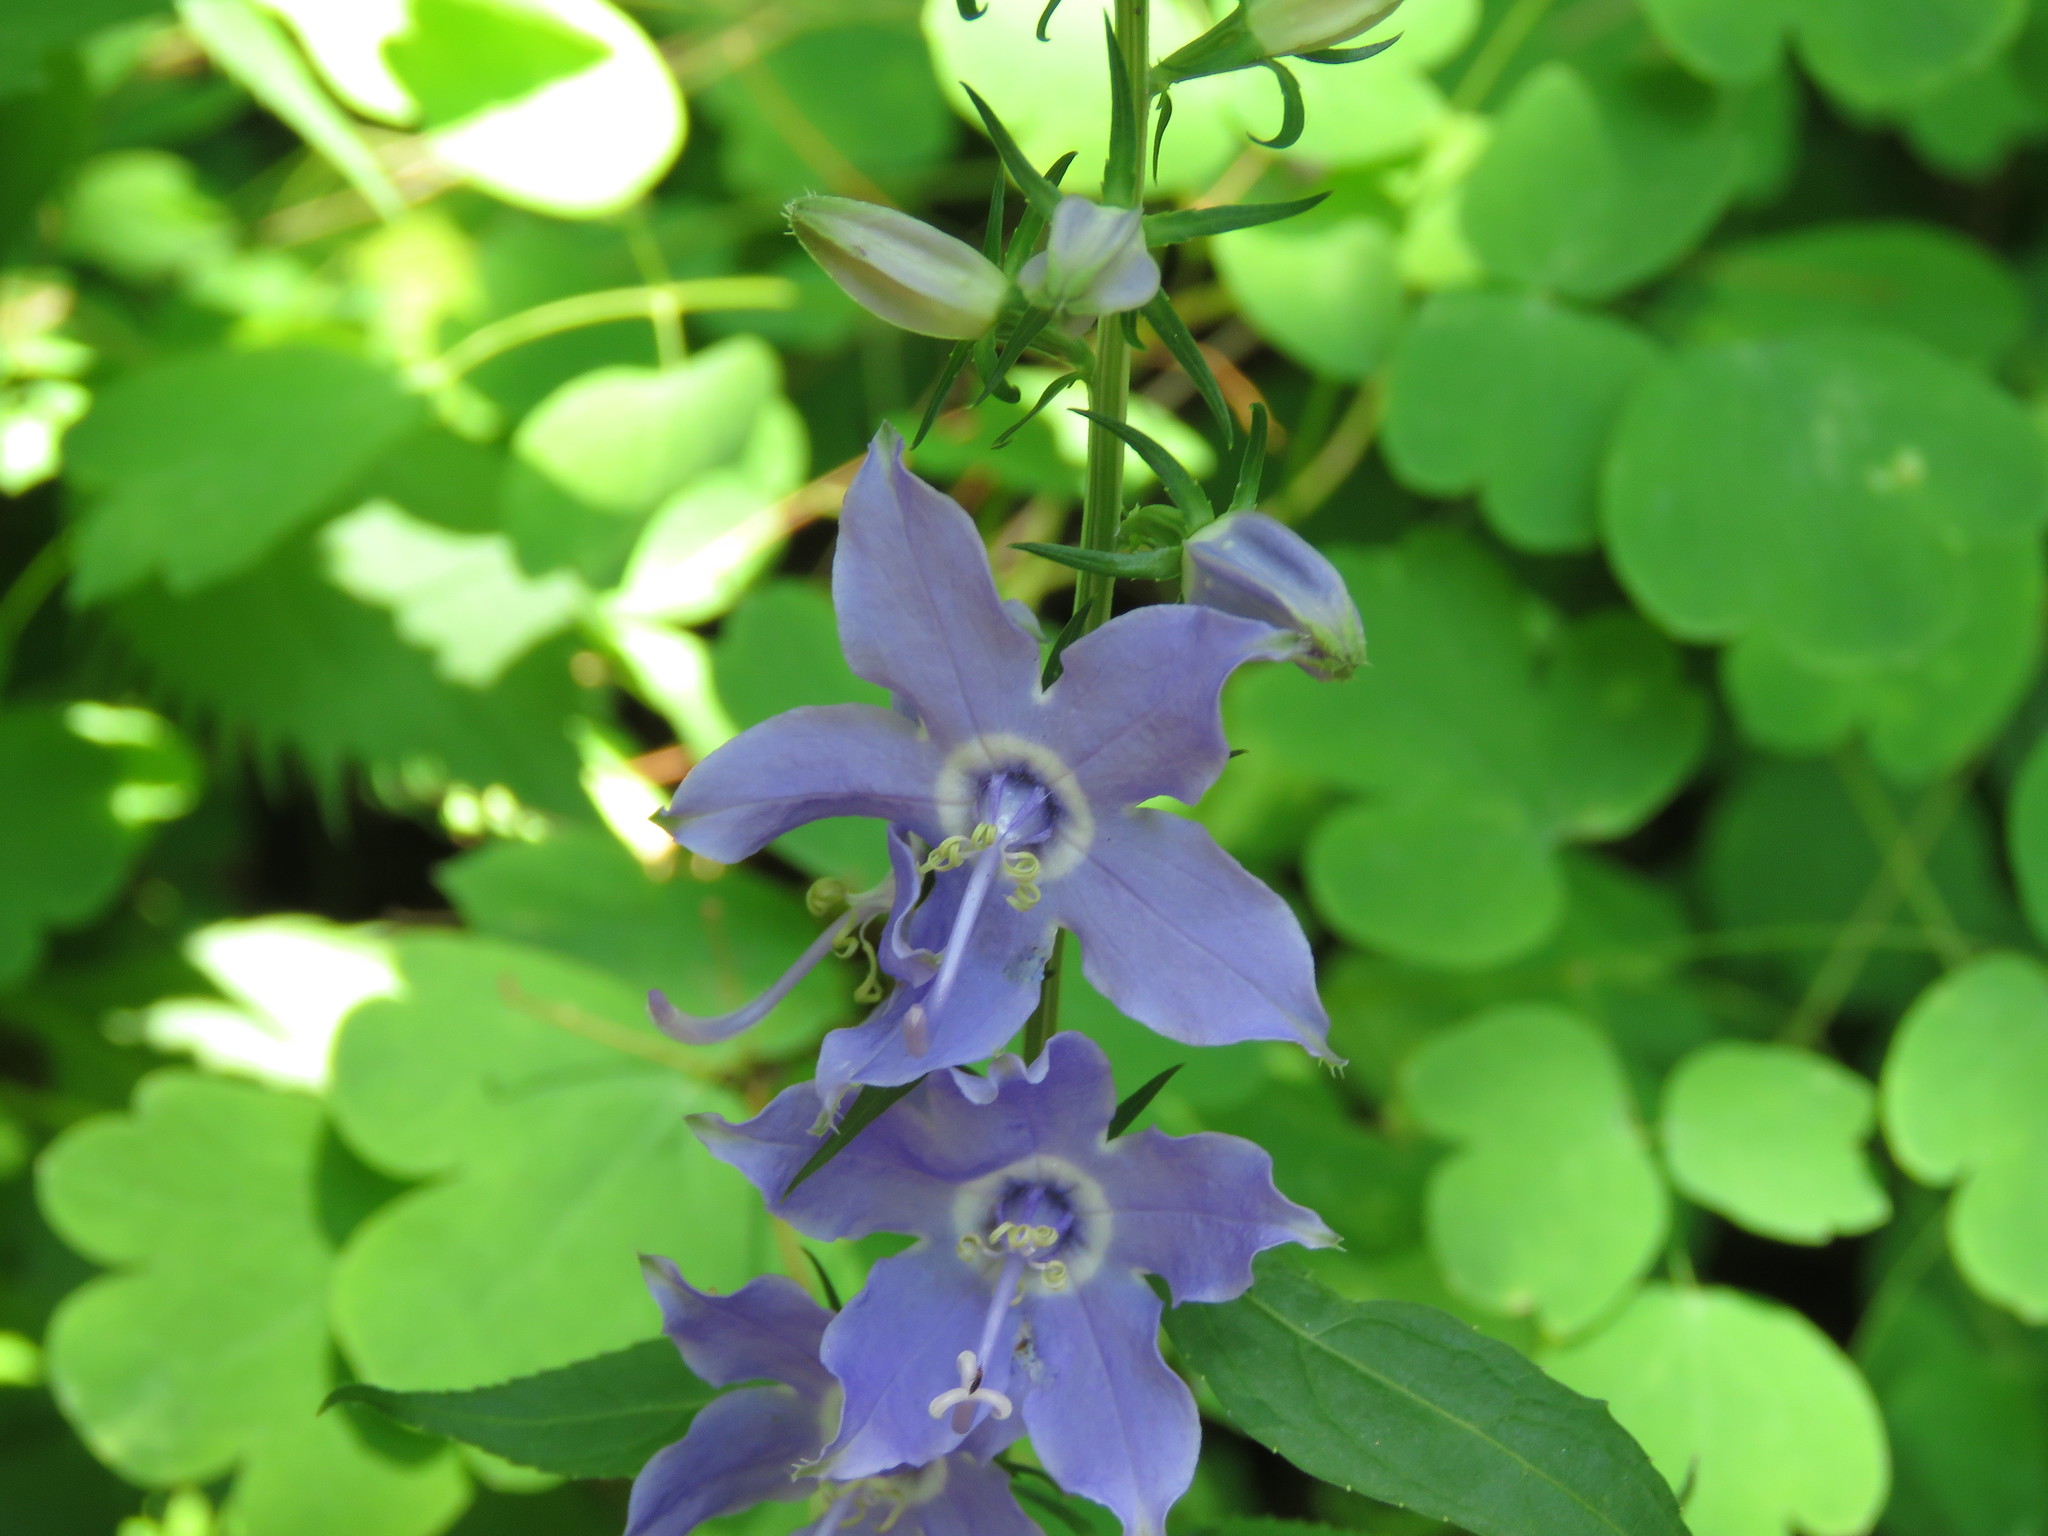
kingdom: Plantae
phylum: Tracheophyta
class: Magnoliopsida
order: Asterales
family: Campanulaceae
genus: Campanulastrum
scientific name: Campanulastrum americanum
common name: American bellflower
